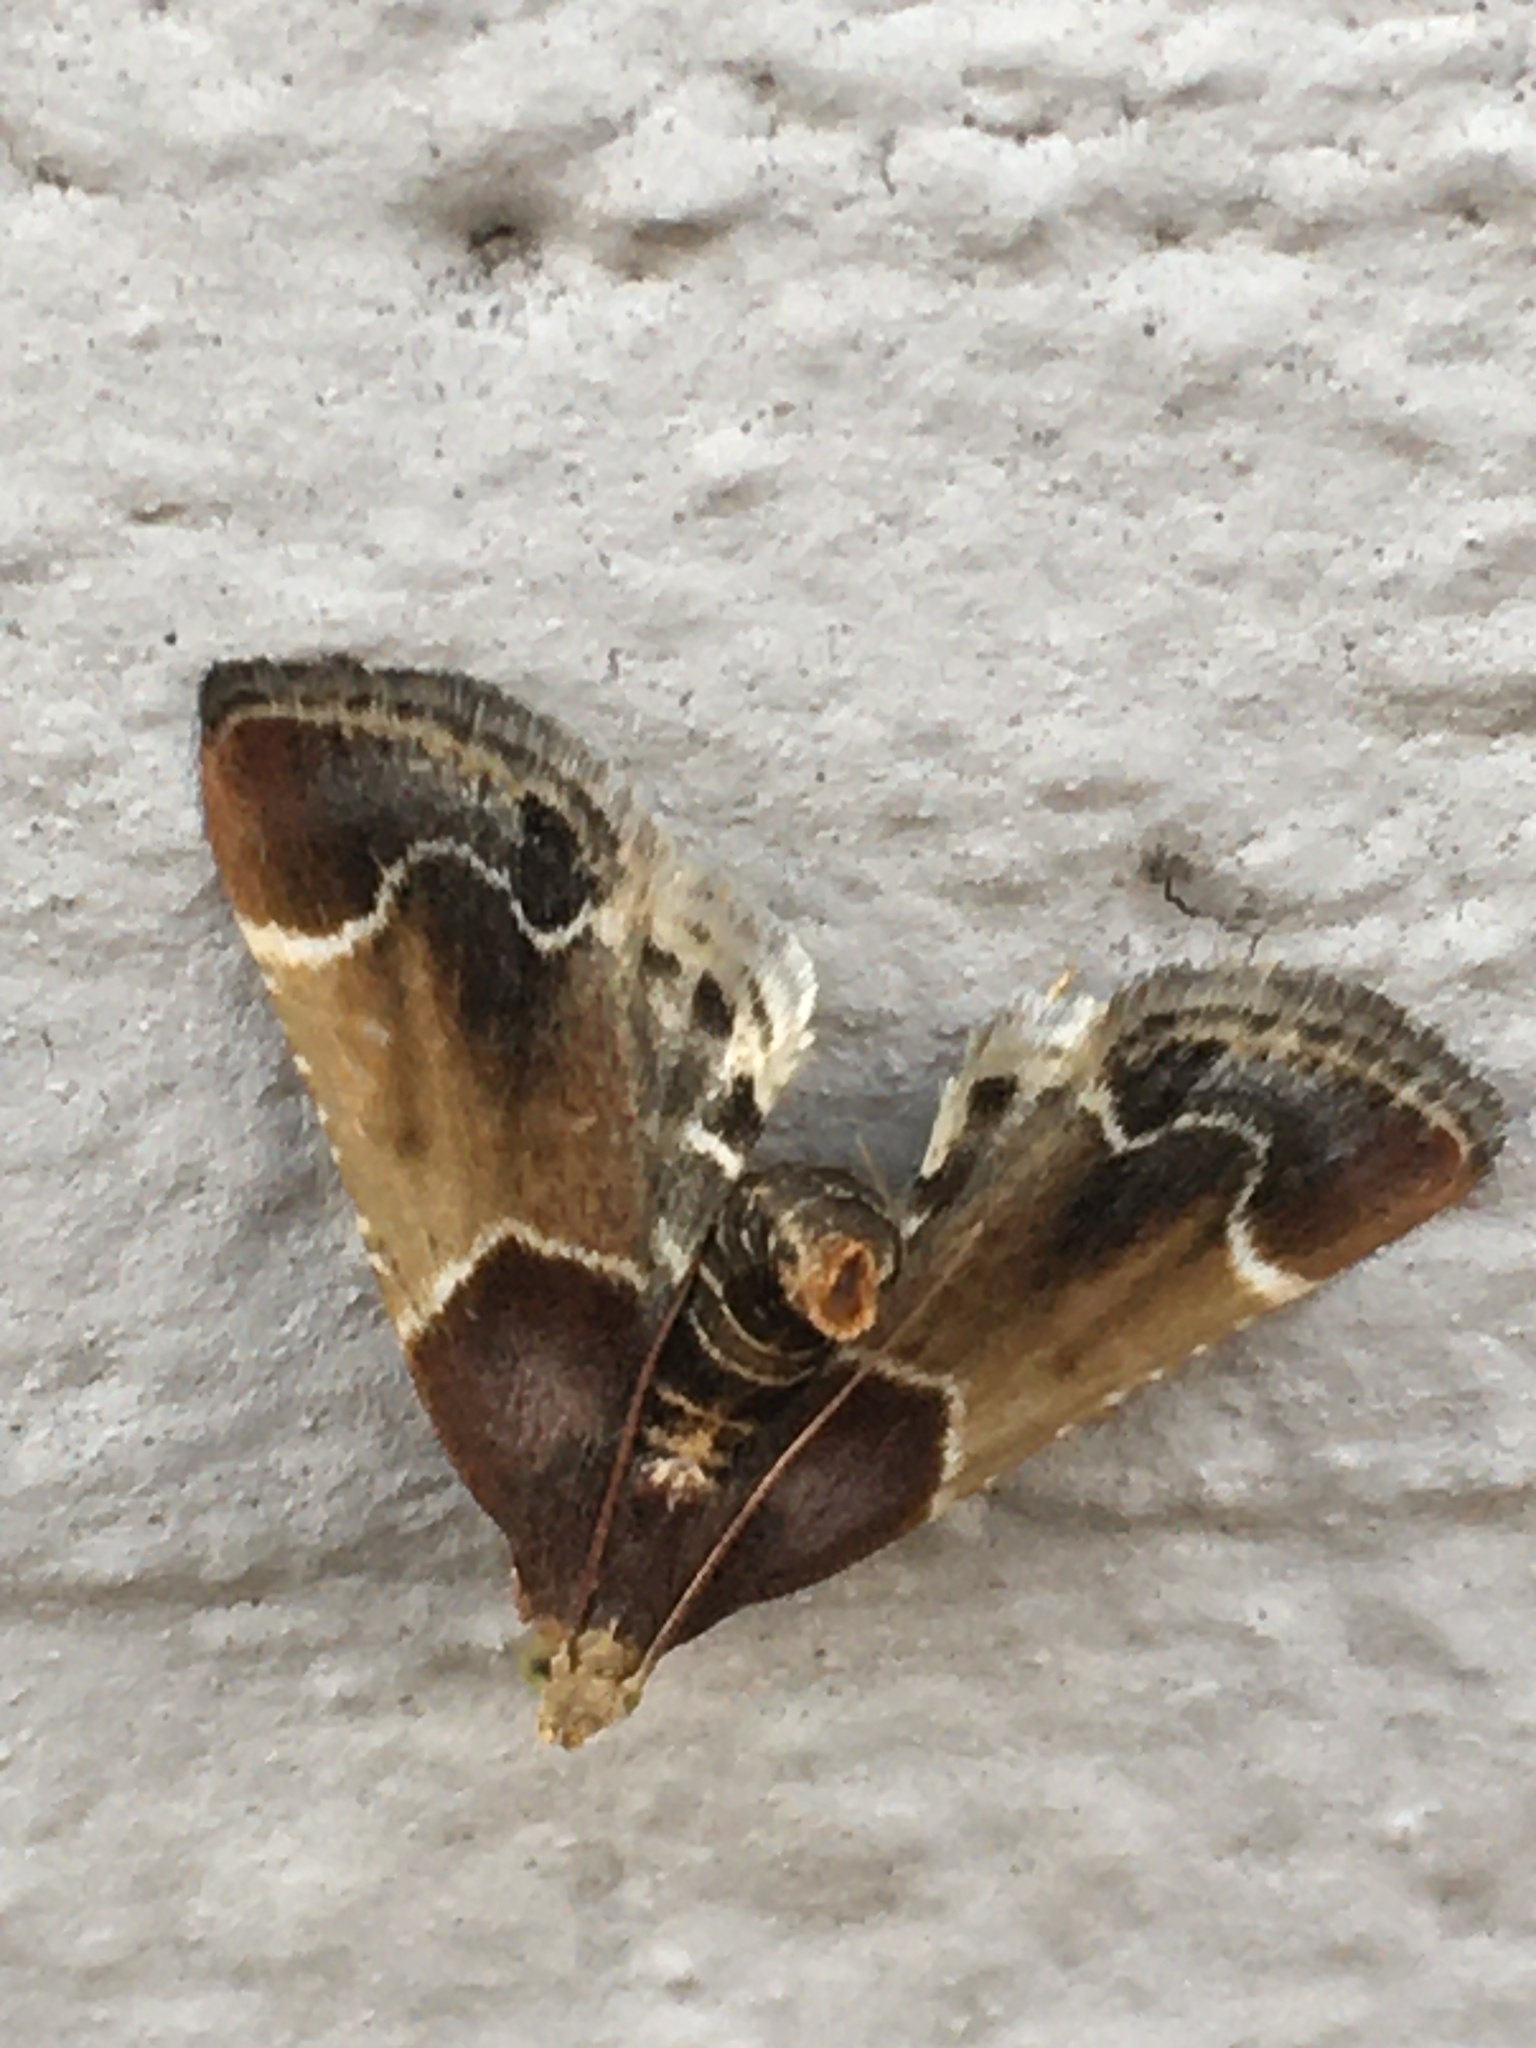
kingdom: Animalia
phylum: Arthropoda
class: Insecta
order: Lepidoptera
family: Pyralidae
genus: Pyralis
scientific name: Pyralis farinalis
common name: Meal moth
